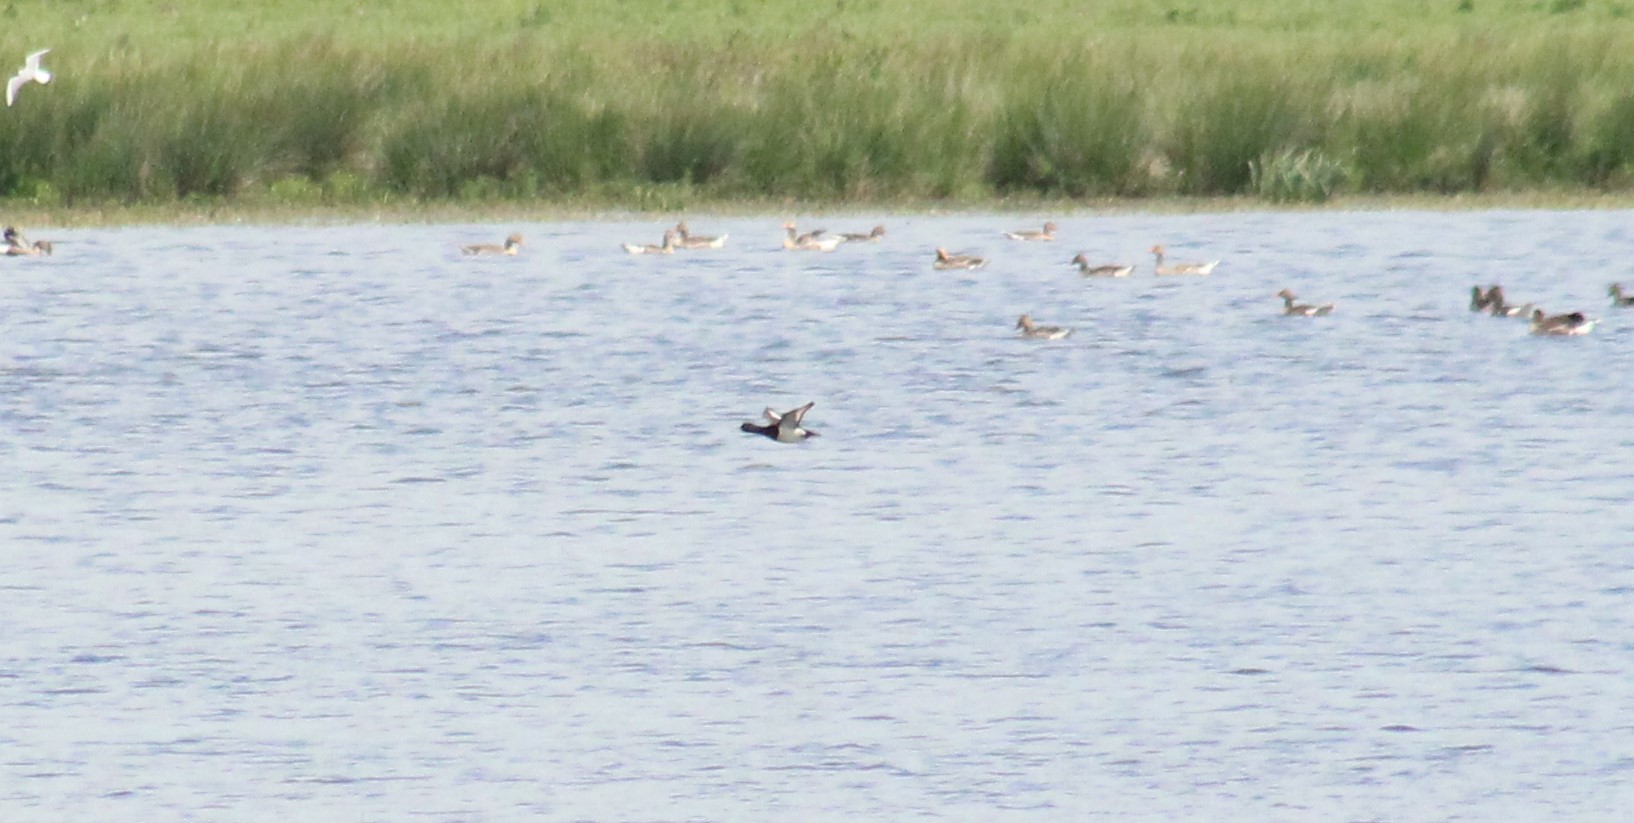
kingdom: Animalia
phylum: Chordata
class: Aves
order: Anseriformes
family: Anatidae
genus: Aythya
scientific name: Aythya fuligula
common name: Tufted duck
